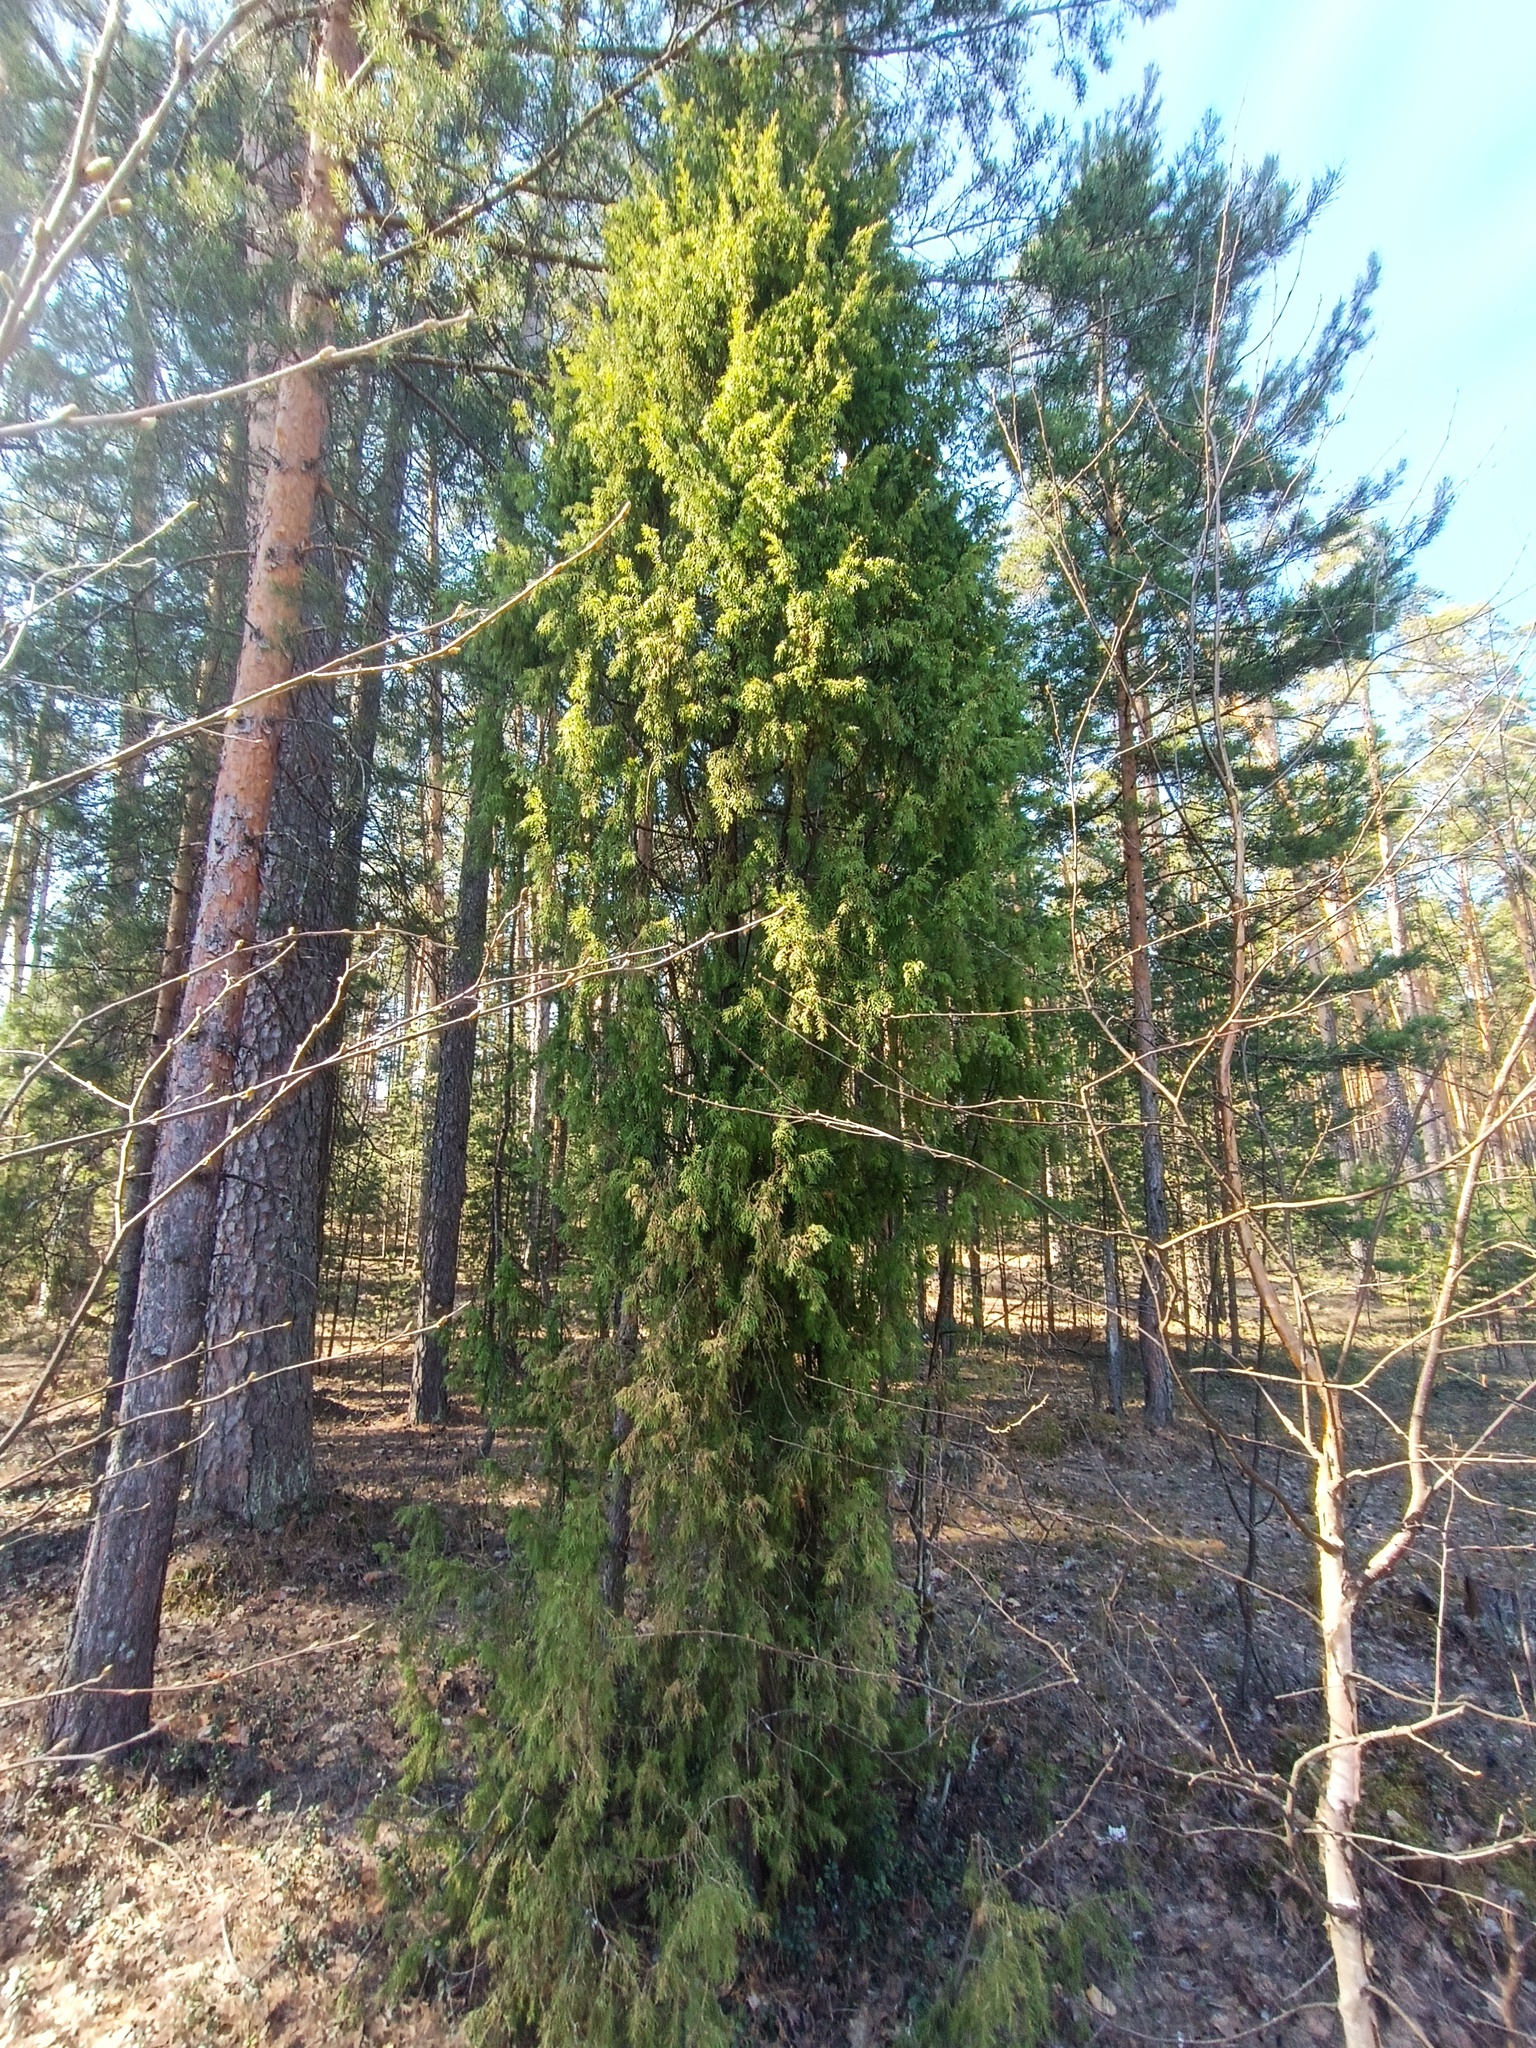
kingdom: Plantae
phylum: Tracheophyta
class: Pinopsida
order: Pinales
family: Cupressaceae
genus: Juniperus
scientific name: Juniperus communis
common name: Common juniper
